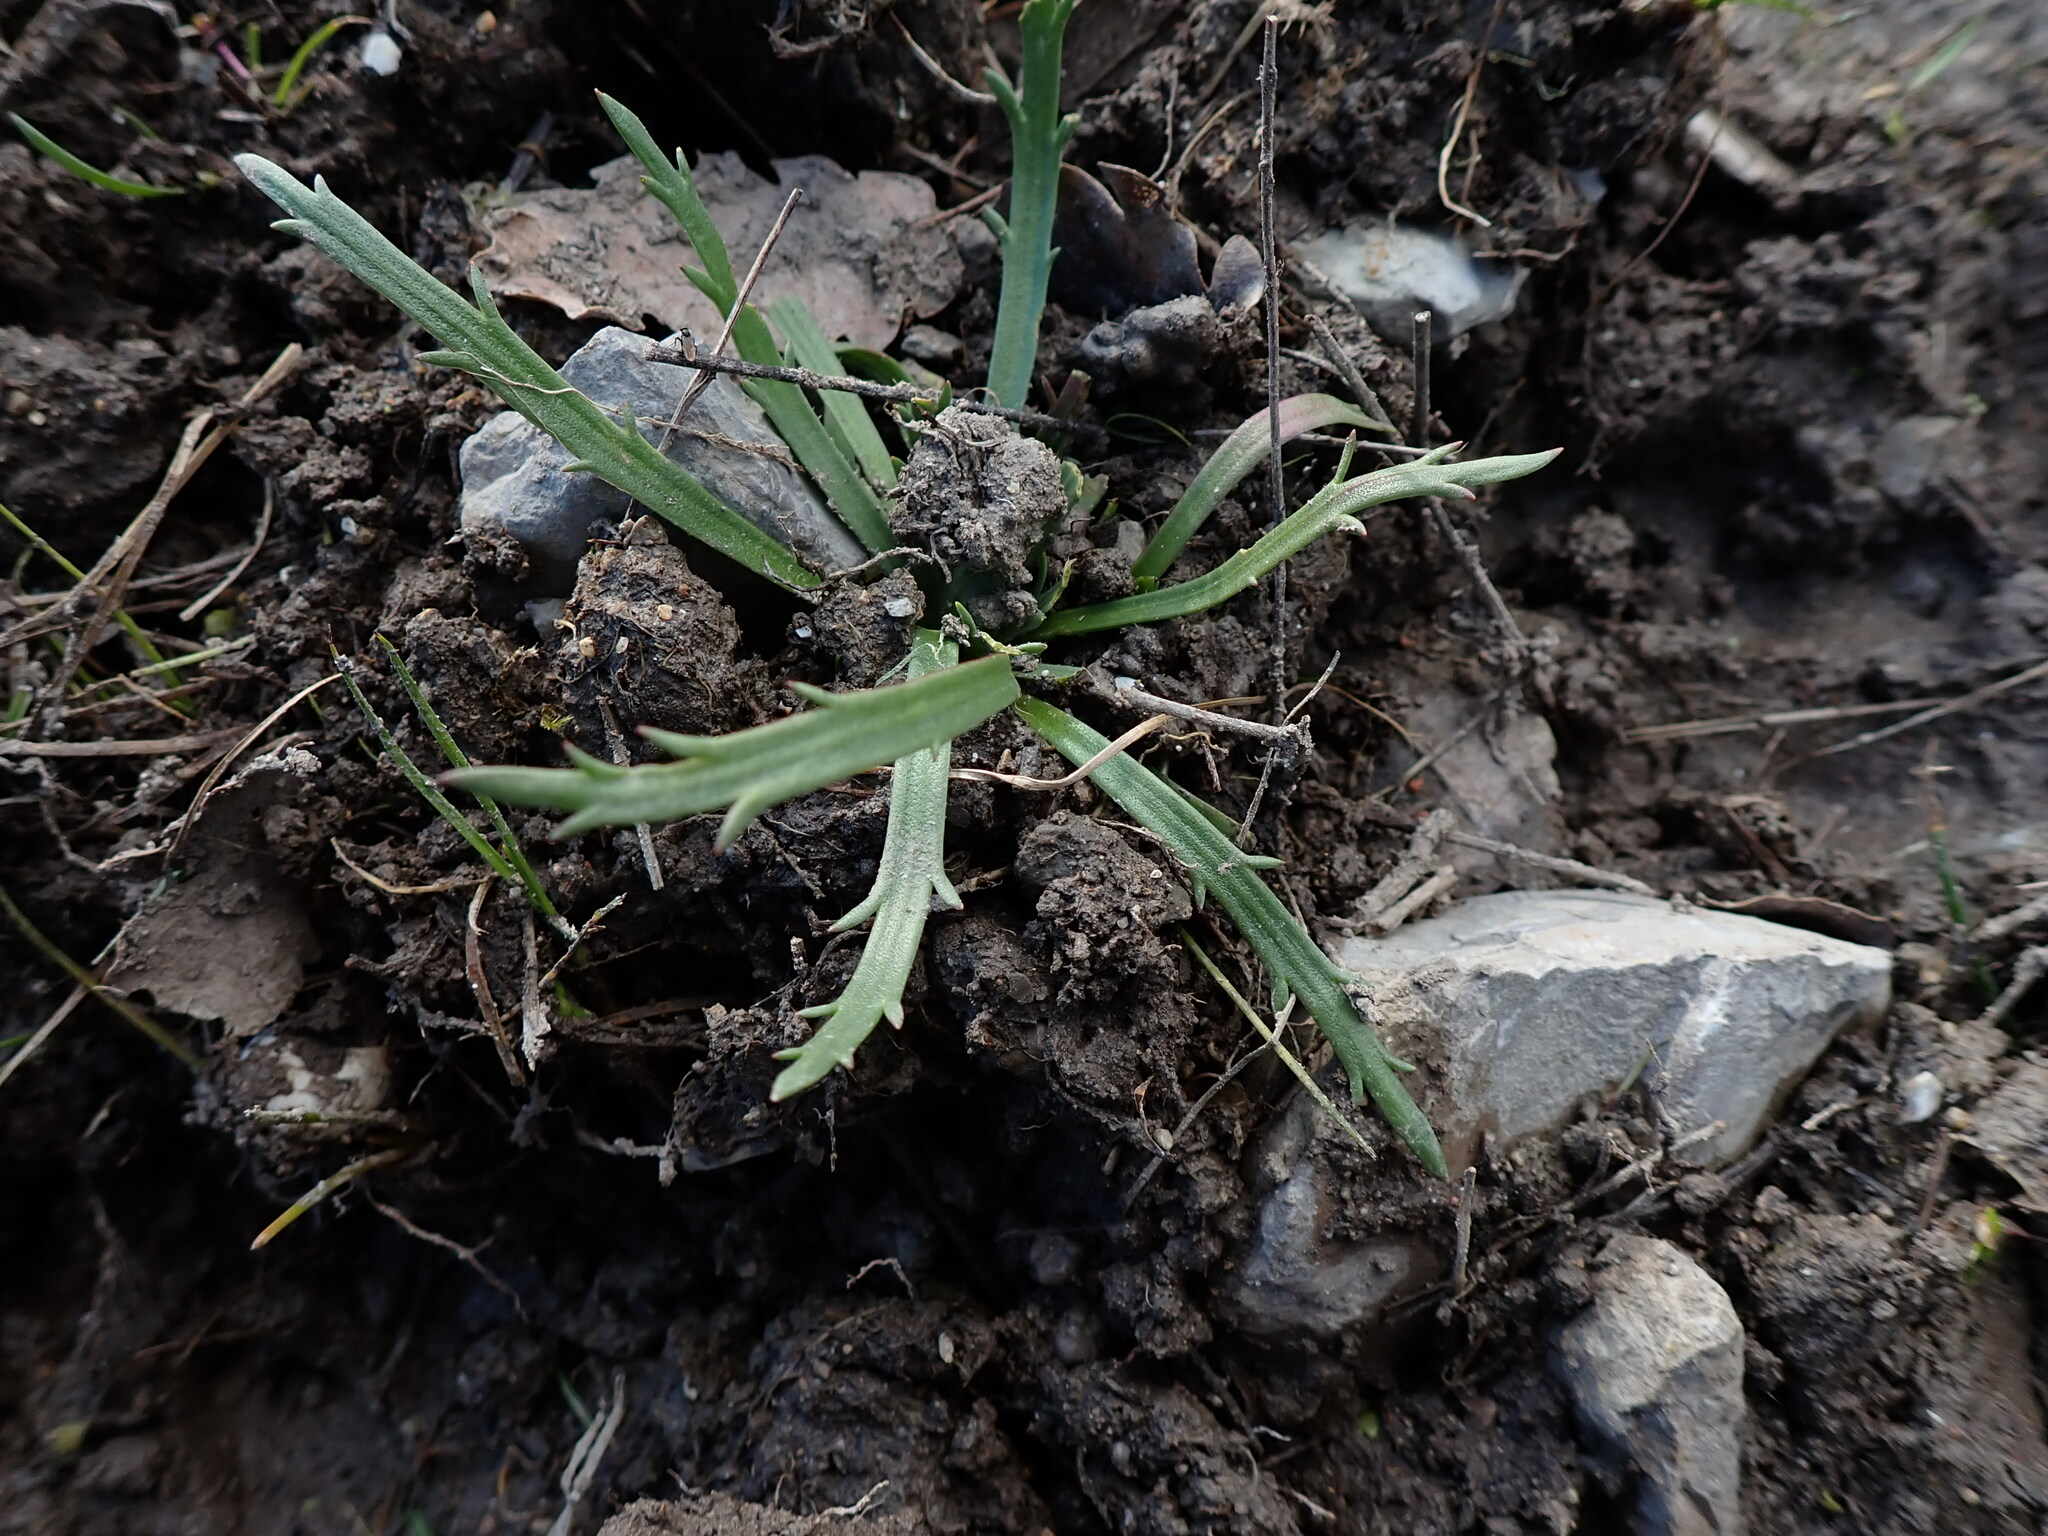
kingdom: Plantae
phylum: Tracheophyta
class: Magnoliopsida
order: Lamiales
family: Plantaginaceae
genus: Plantago
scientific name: Plantago coronopus
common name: Buck's-horn plantain
